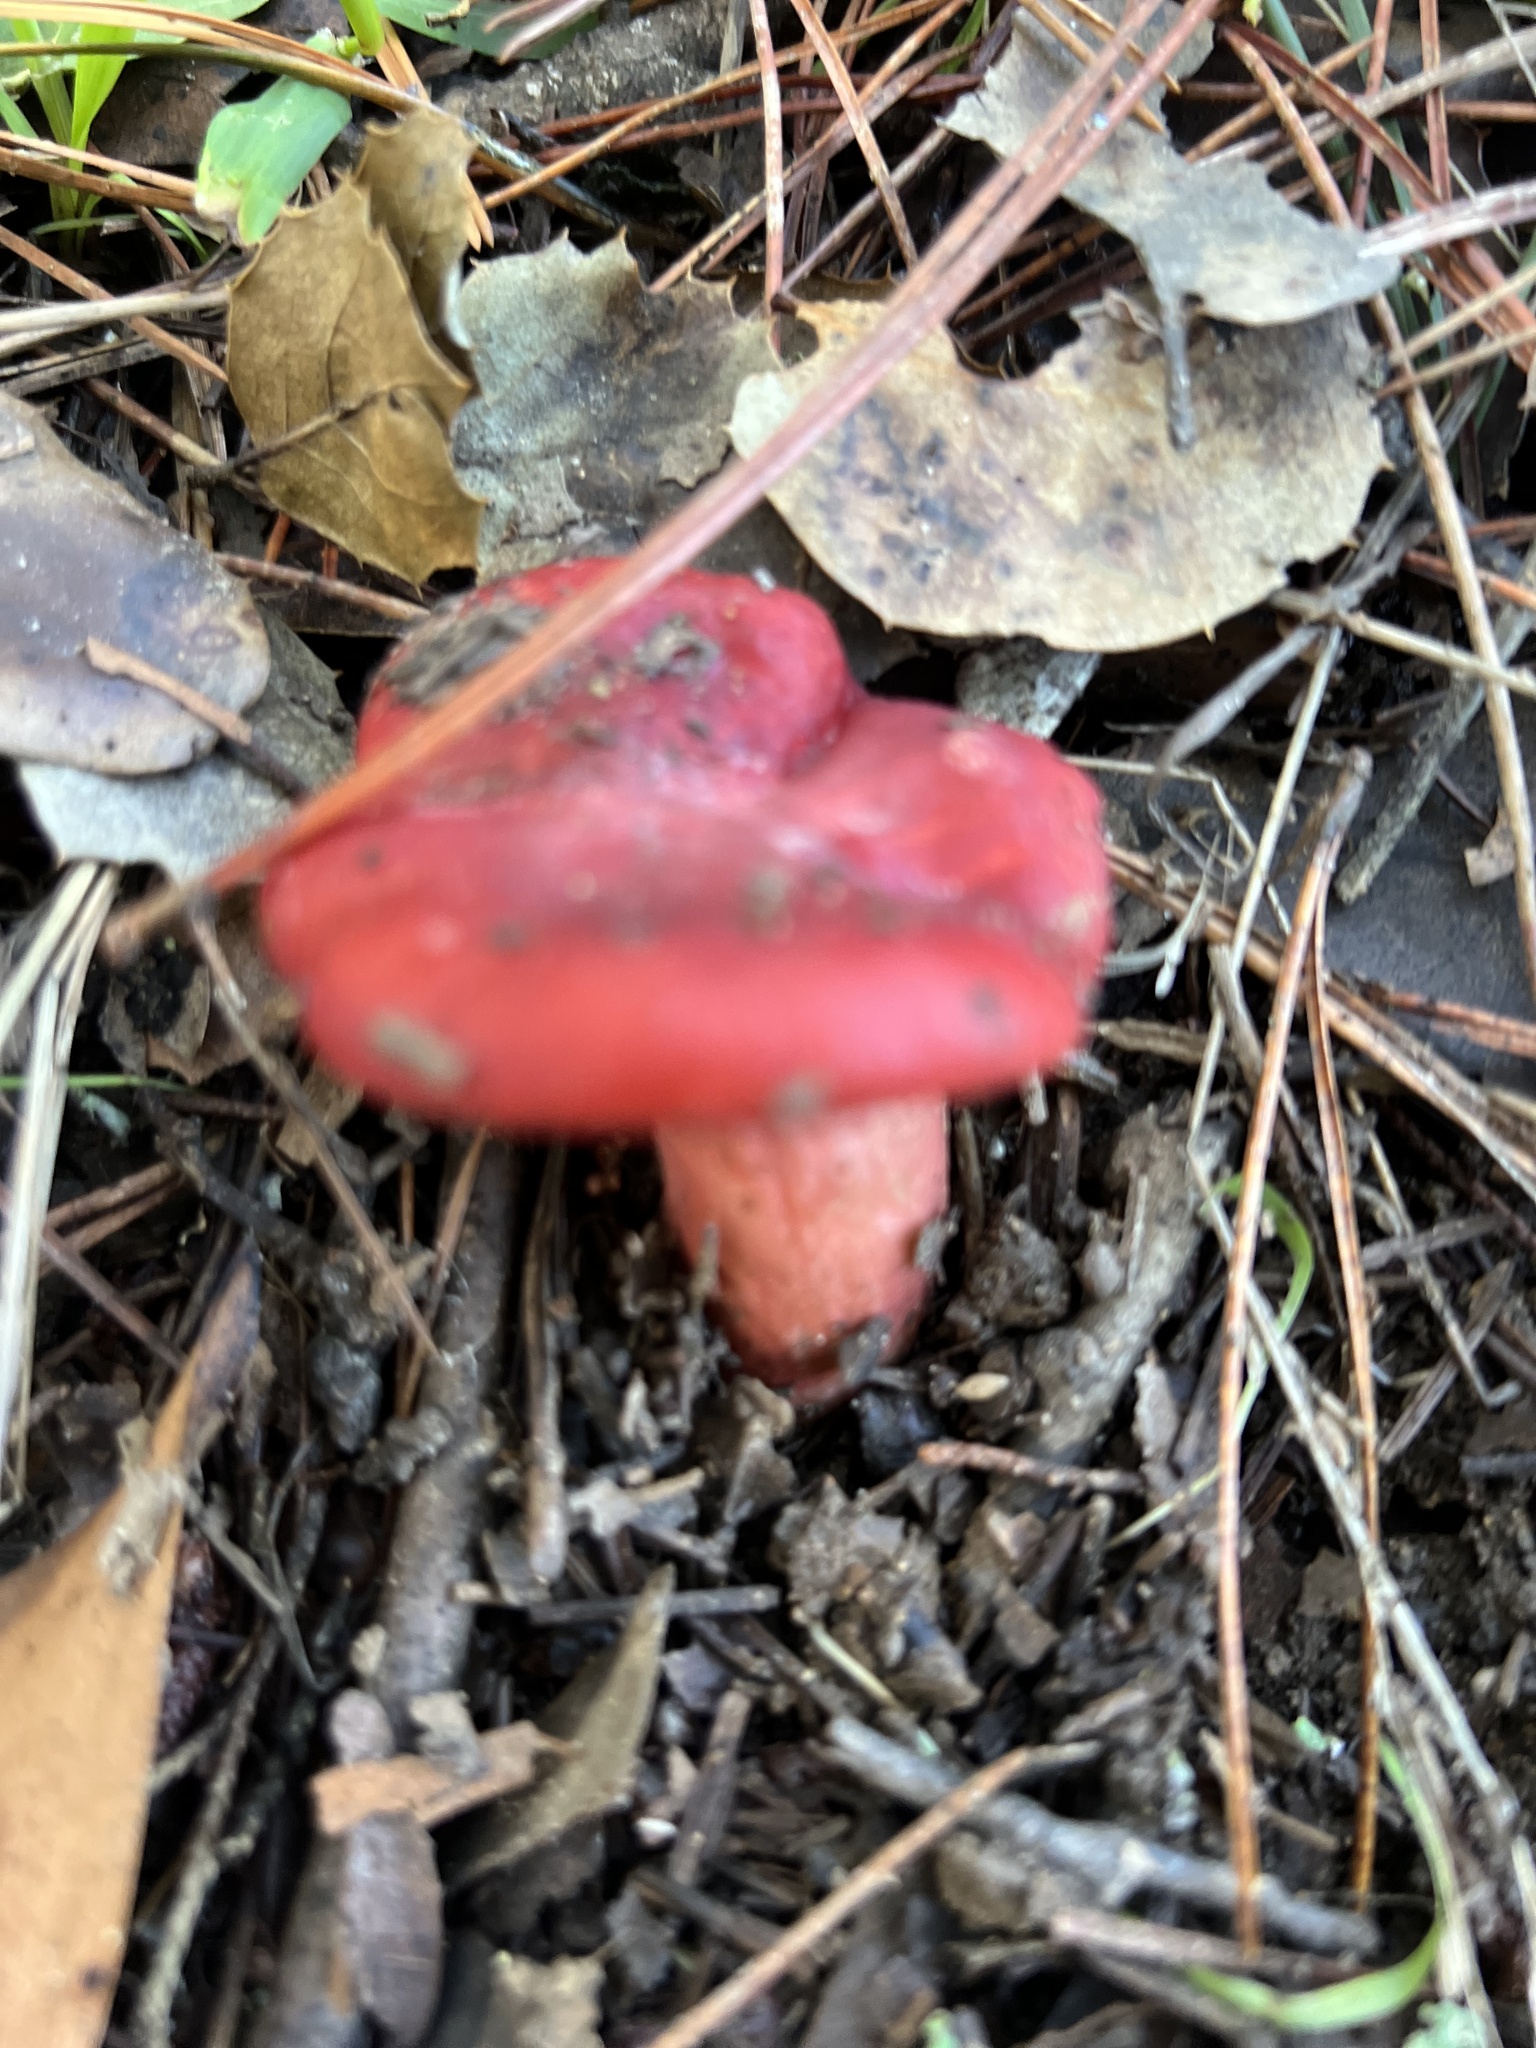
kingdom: Fungi
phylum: Basidiomycota
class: Agaricomycetes
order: Russulales
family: Russulaceae
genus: Russula
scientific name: Russula rhodocephala
